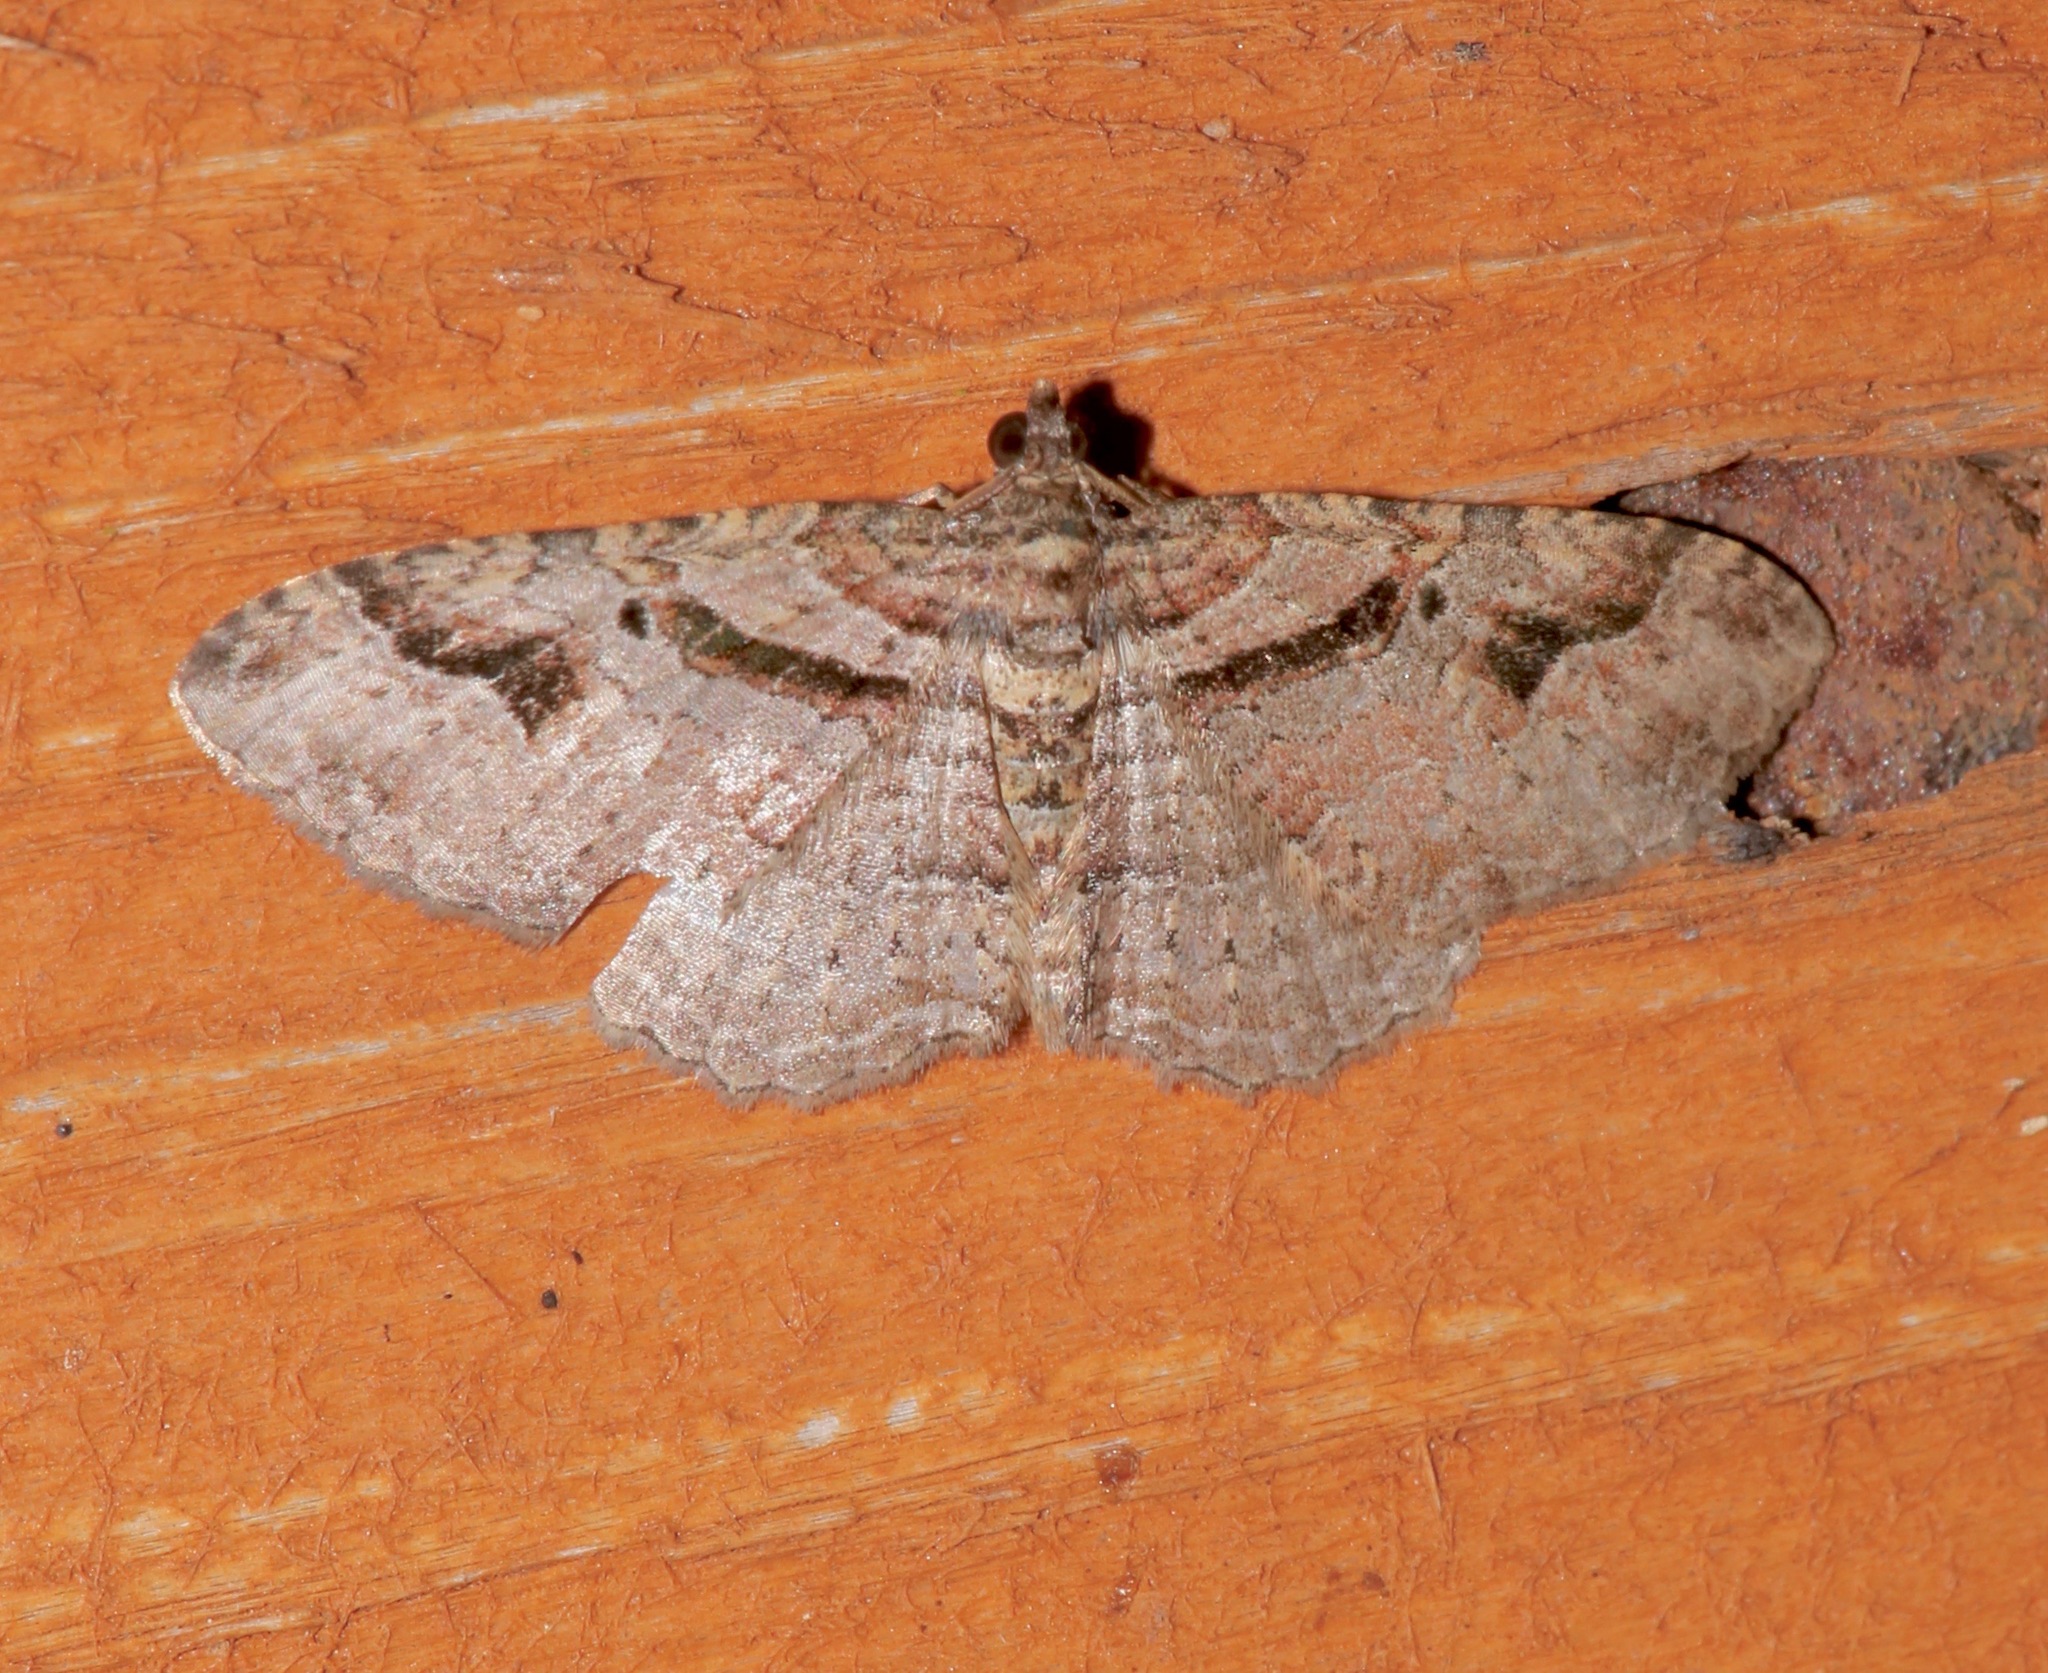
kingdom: Animalia
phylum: Arthropoda
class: Insecta
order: Lepidoptera
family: Geometridae
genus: Costaconvexa
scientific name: Costaconvexa centrostrigaria
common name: Bent-line carpet
